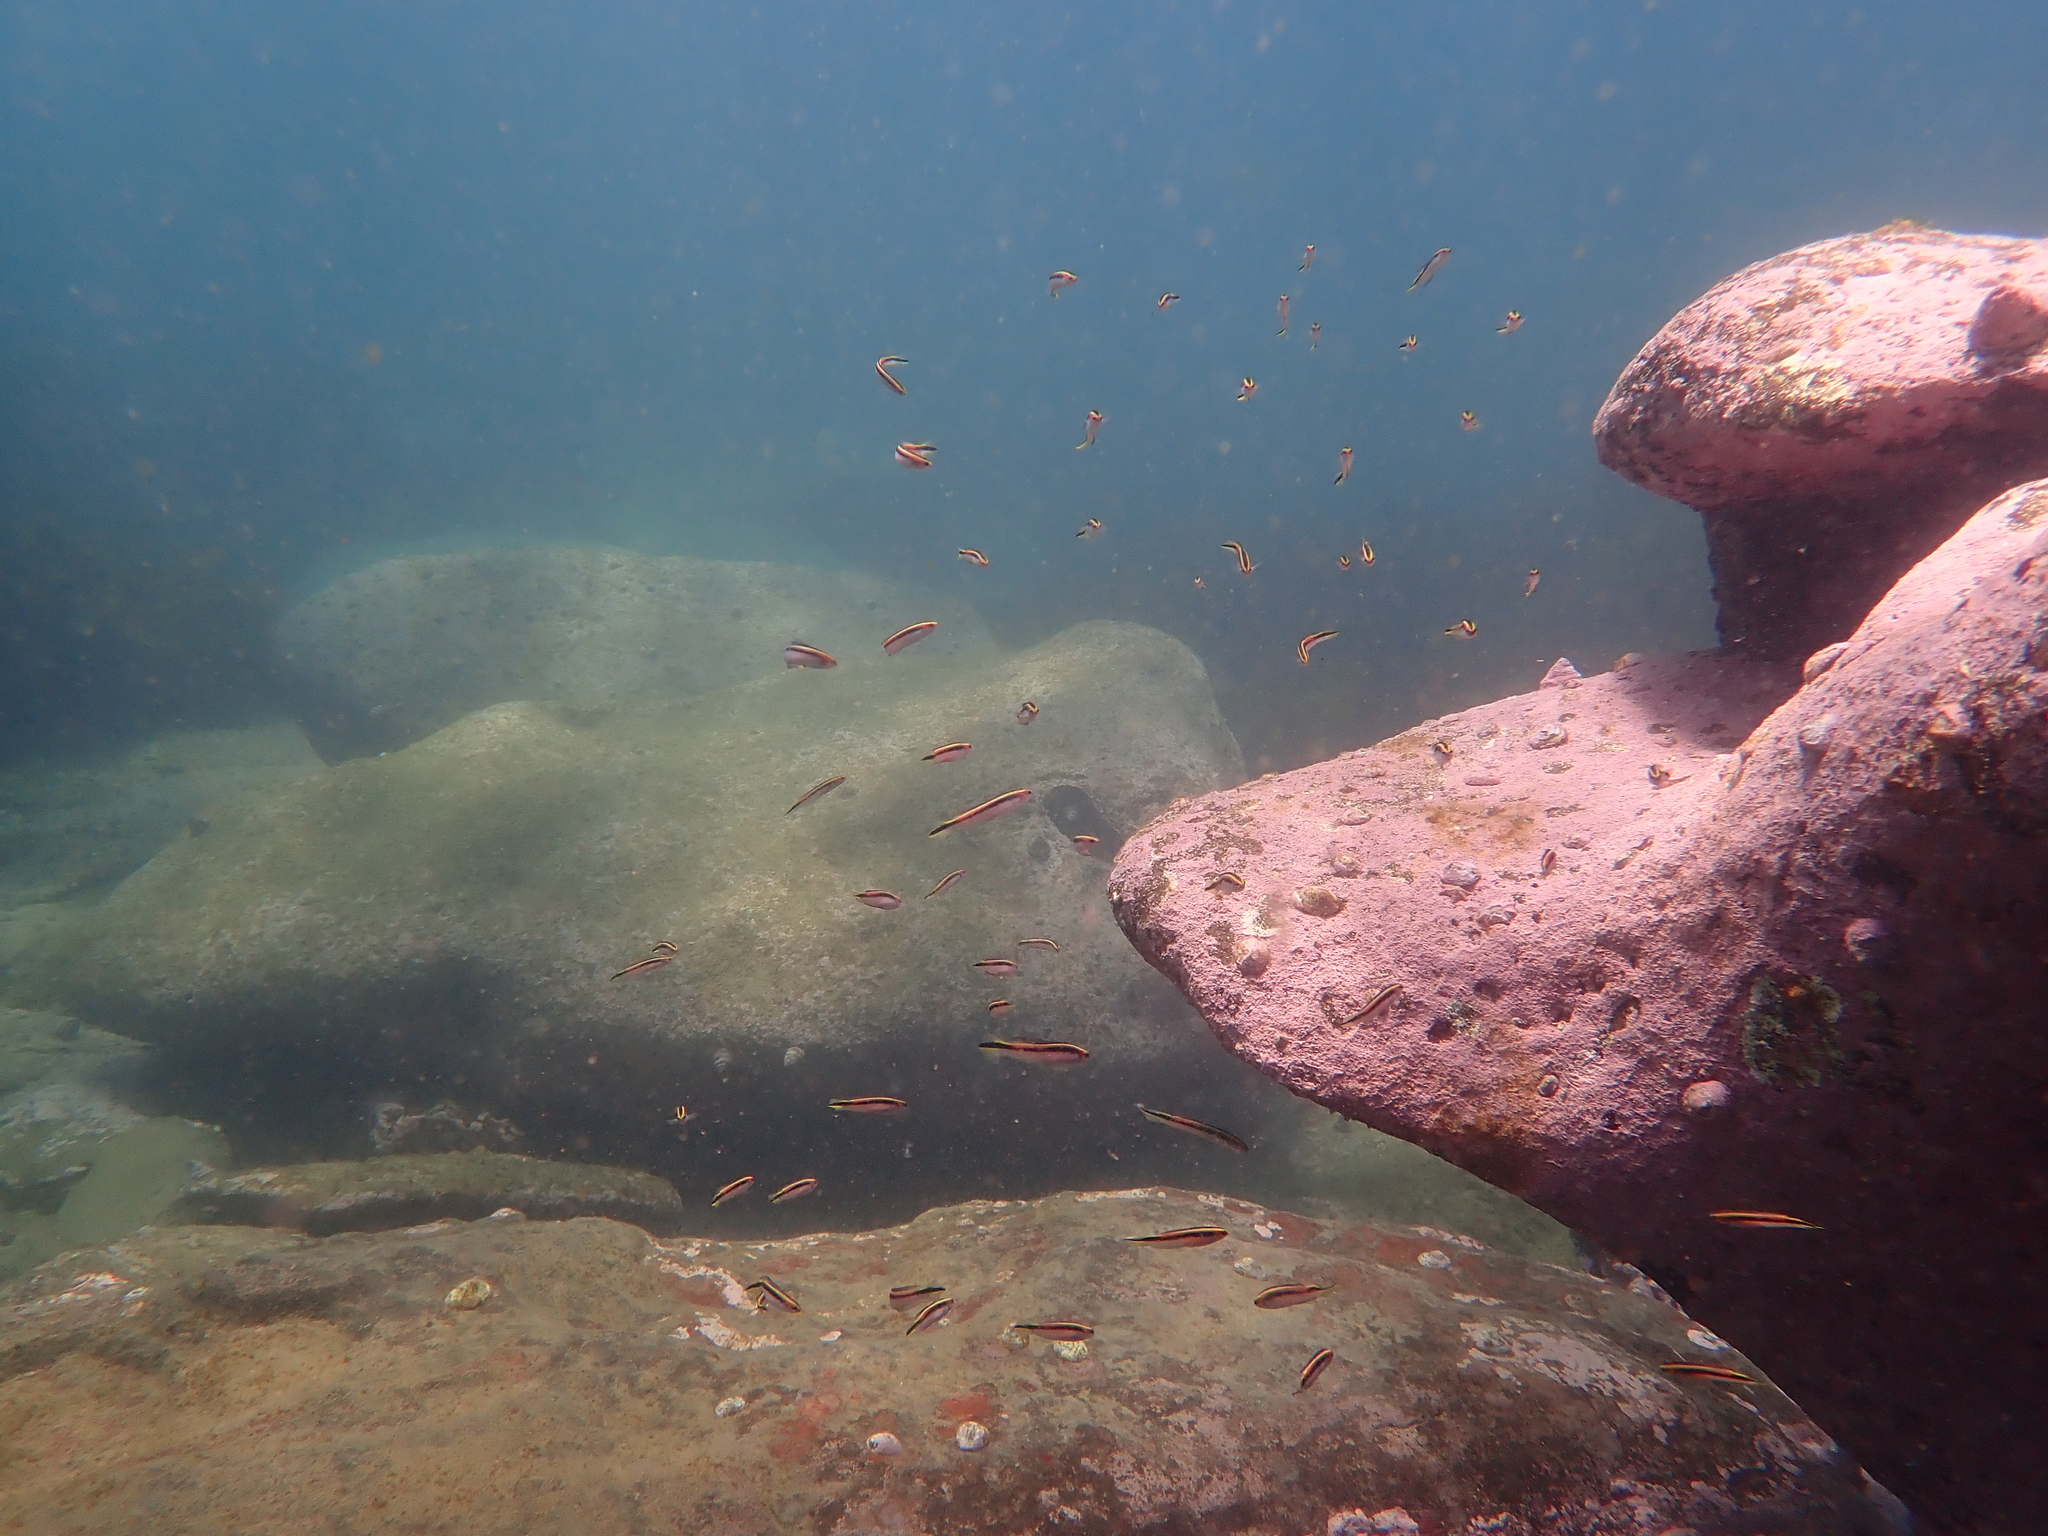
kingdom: Animalia
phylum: Chordata
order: Perciformes
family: Plesiopidae
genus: Trachinops
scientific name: Trachinops taeniatus
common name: Eastern hulafish
